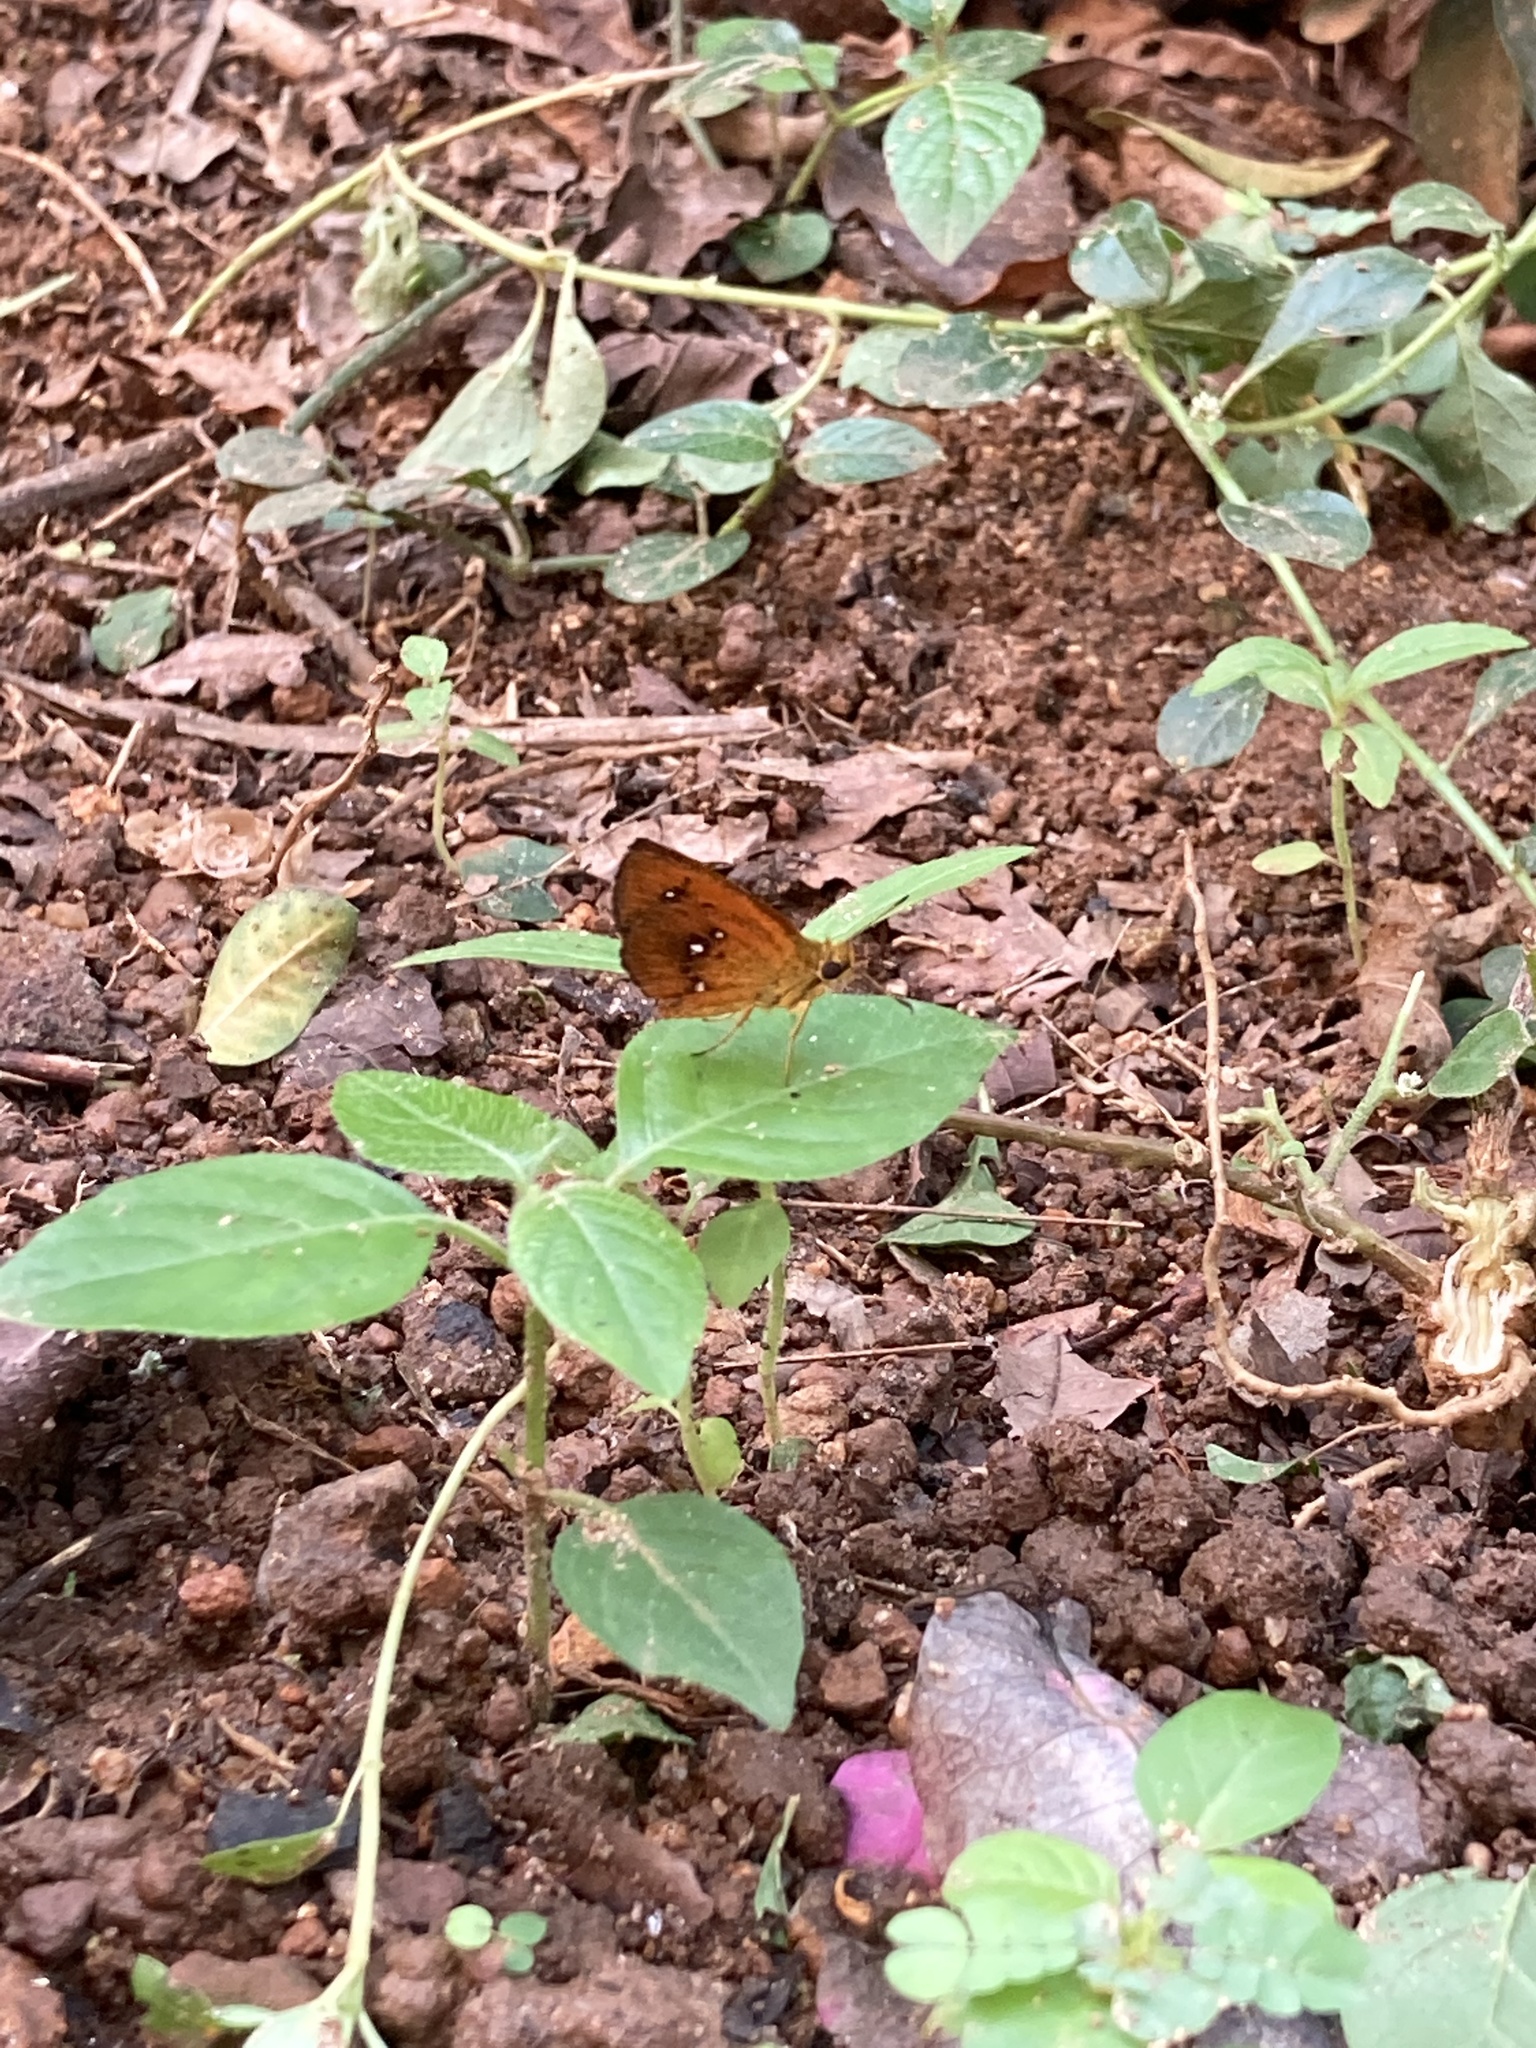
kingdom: Animalia
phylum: Arthropoda
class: Insecta
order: Lepidoptera
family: Hesperiidae
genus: Iambrix
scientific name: Iambrix salsala
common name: Chestnut bob
